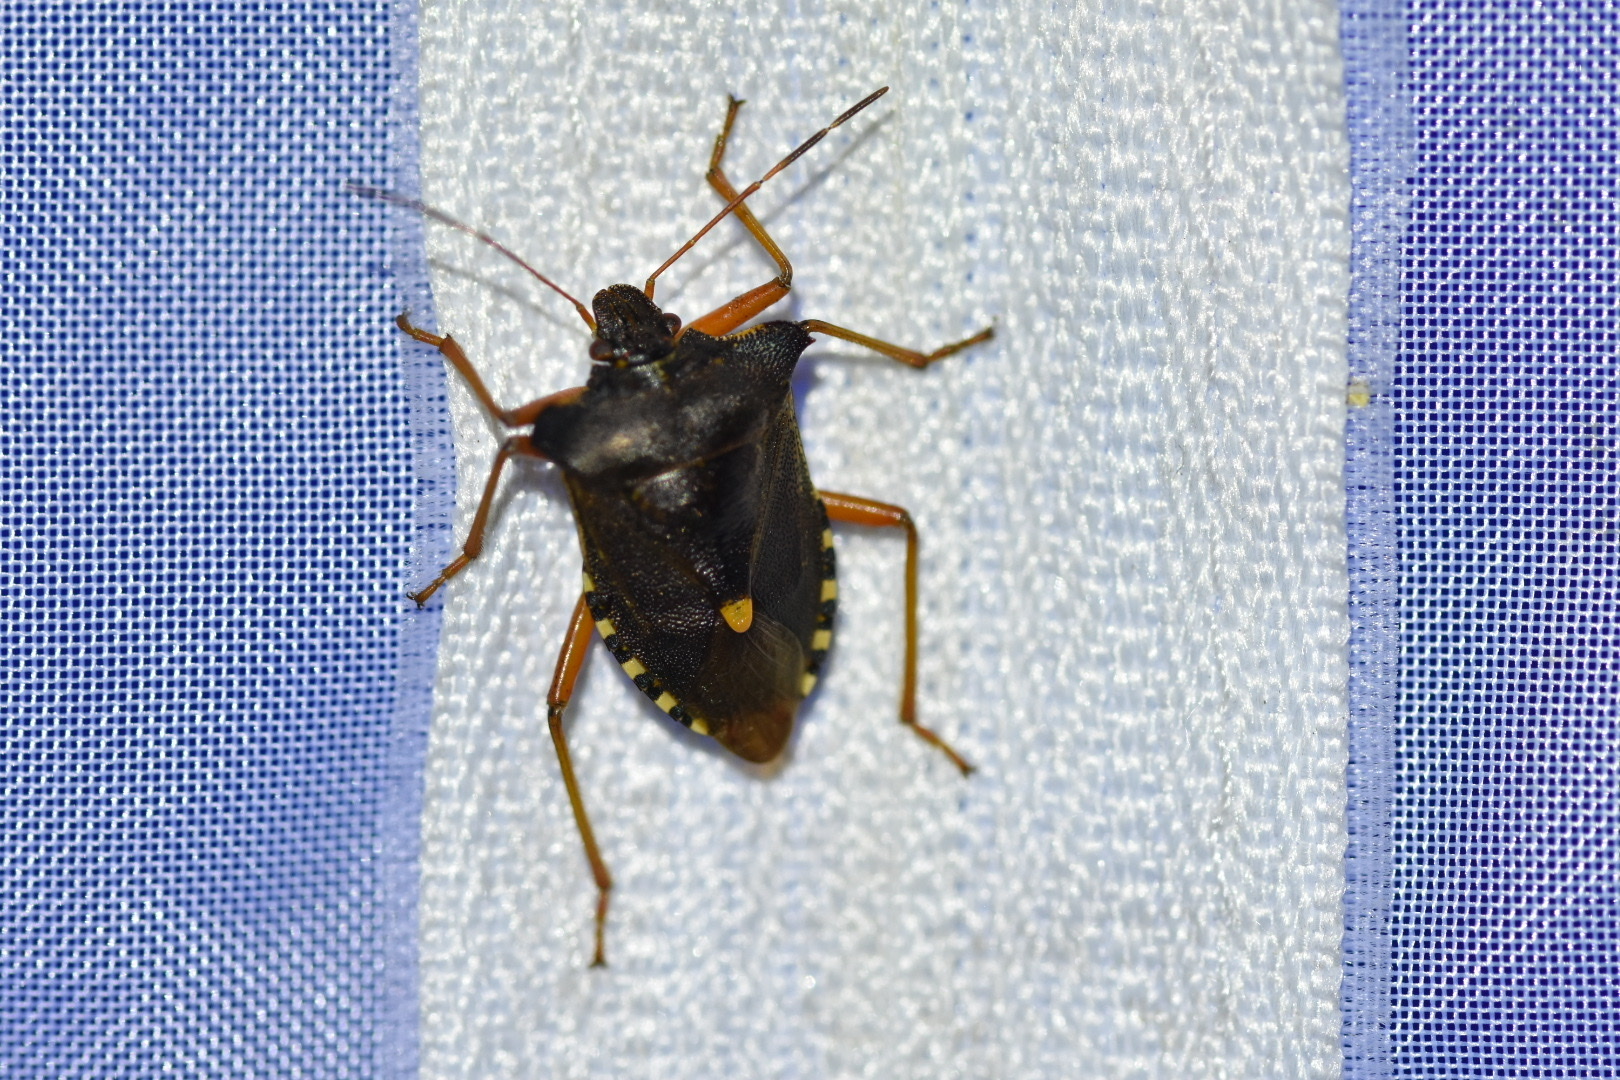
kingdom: Animalia
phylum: Arthropoda
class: Insecta
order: Hemiptera
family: Pentatomidae
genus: Pentatoma
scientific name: Pentatoma rufipes
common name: Forest bug
